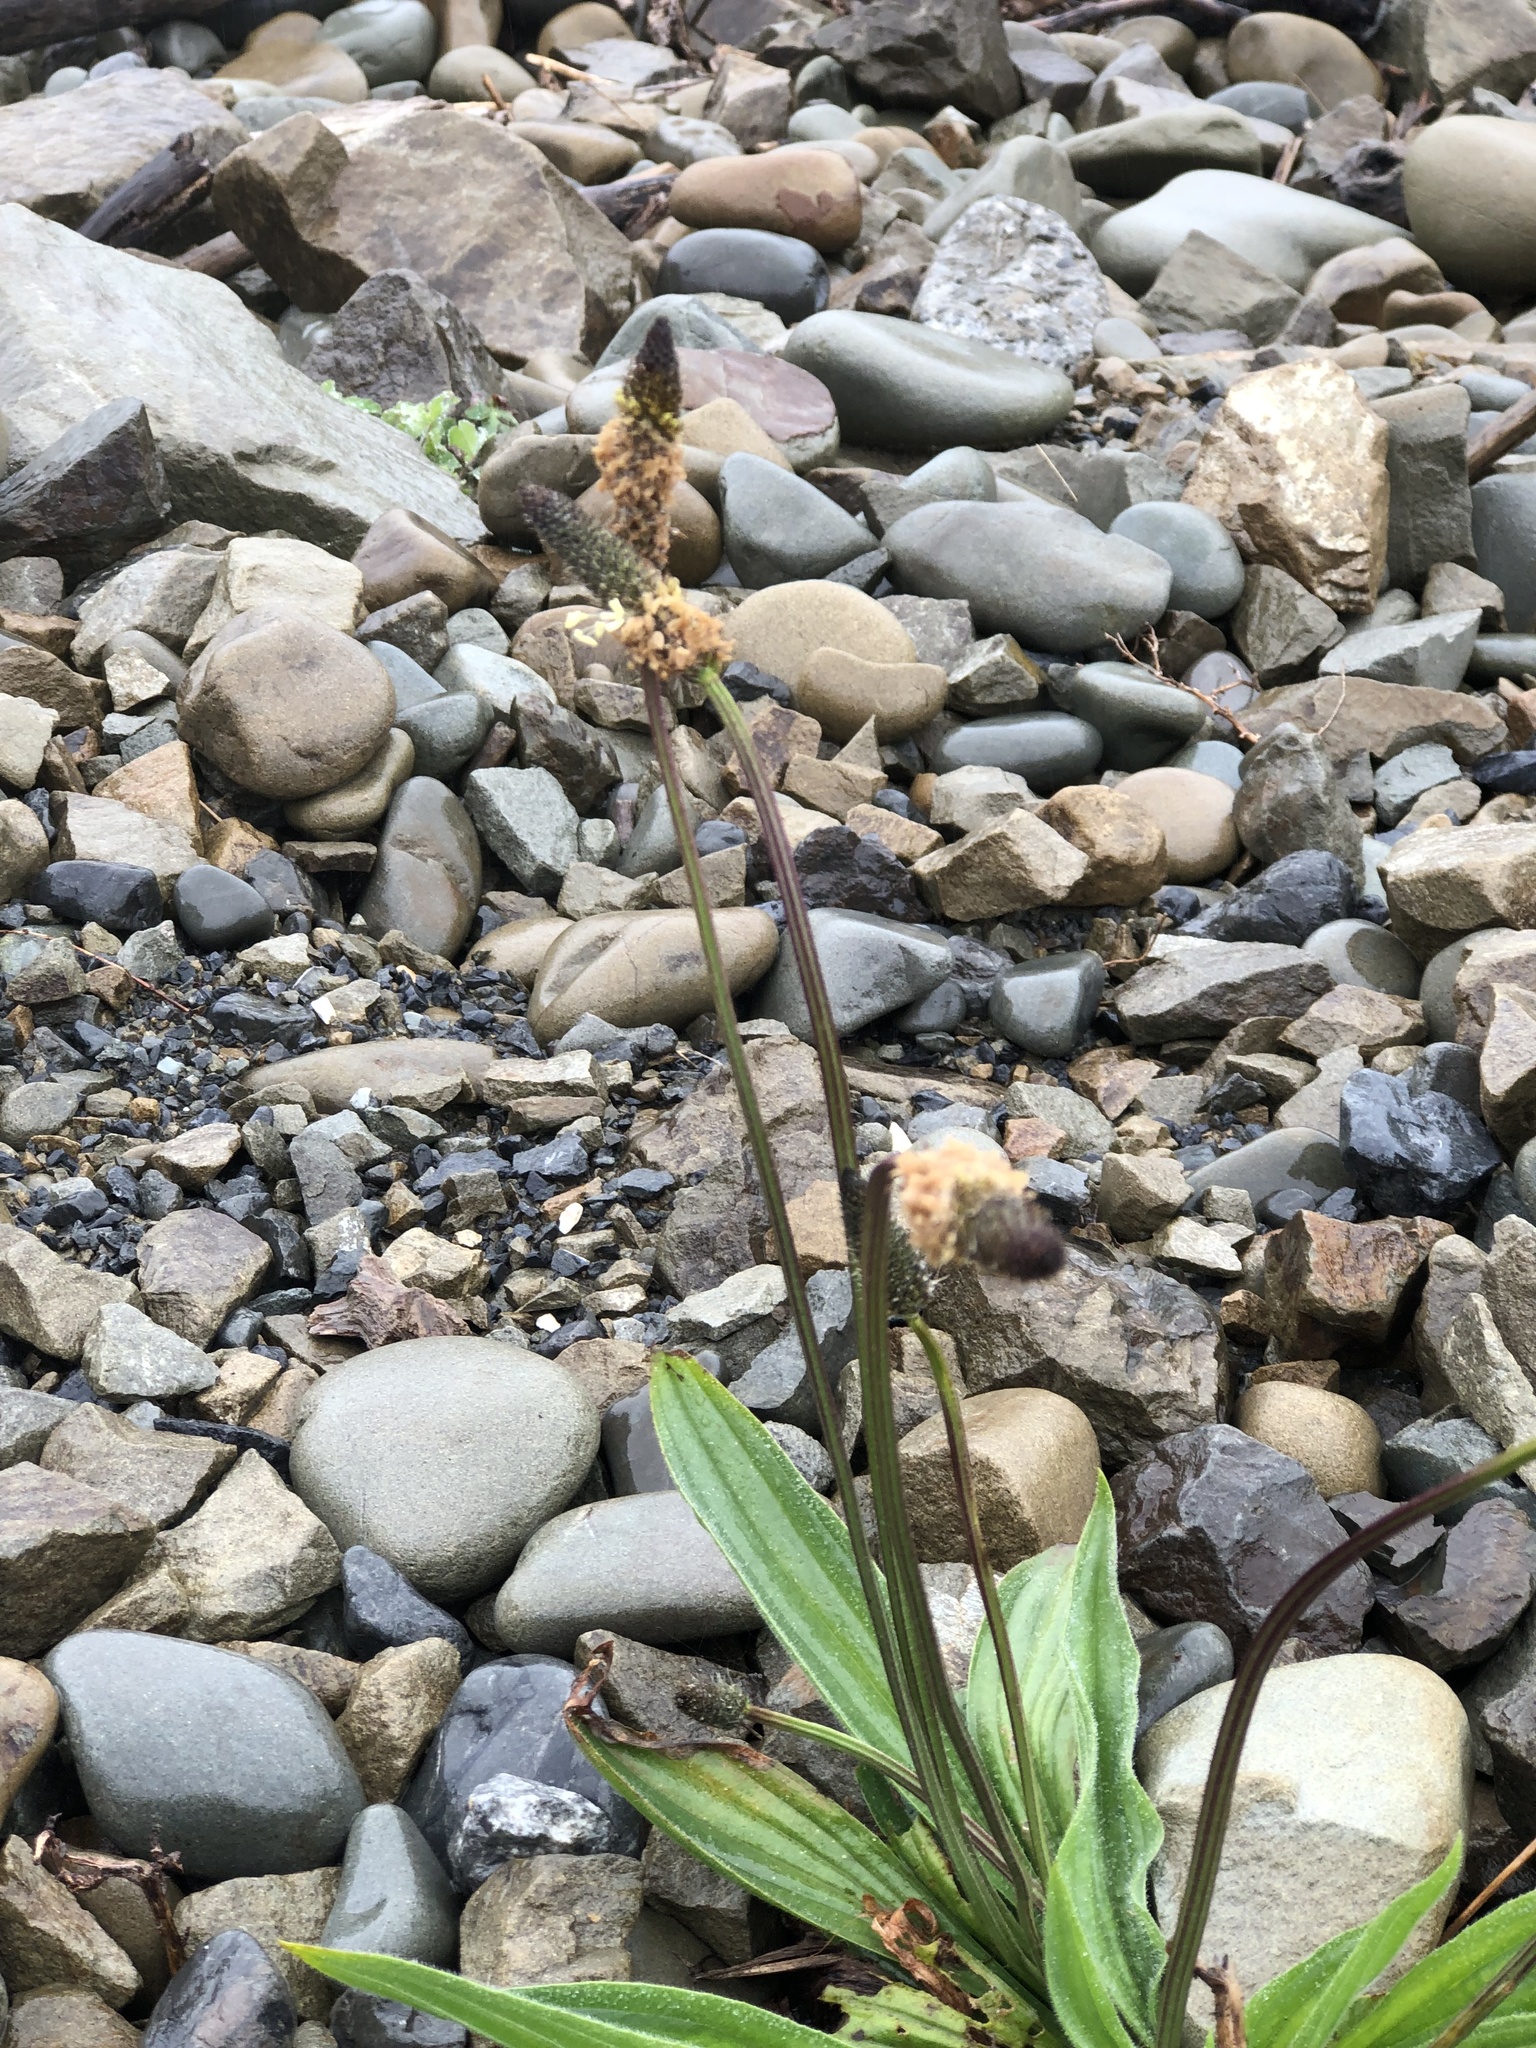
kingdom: Plantae
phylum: Tracheophyta
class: Magnoliopsida
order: Lamiales
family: Plantaginaceae
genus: Plantago
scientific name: Plantago lanceolata
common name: Ribwort plantain
